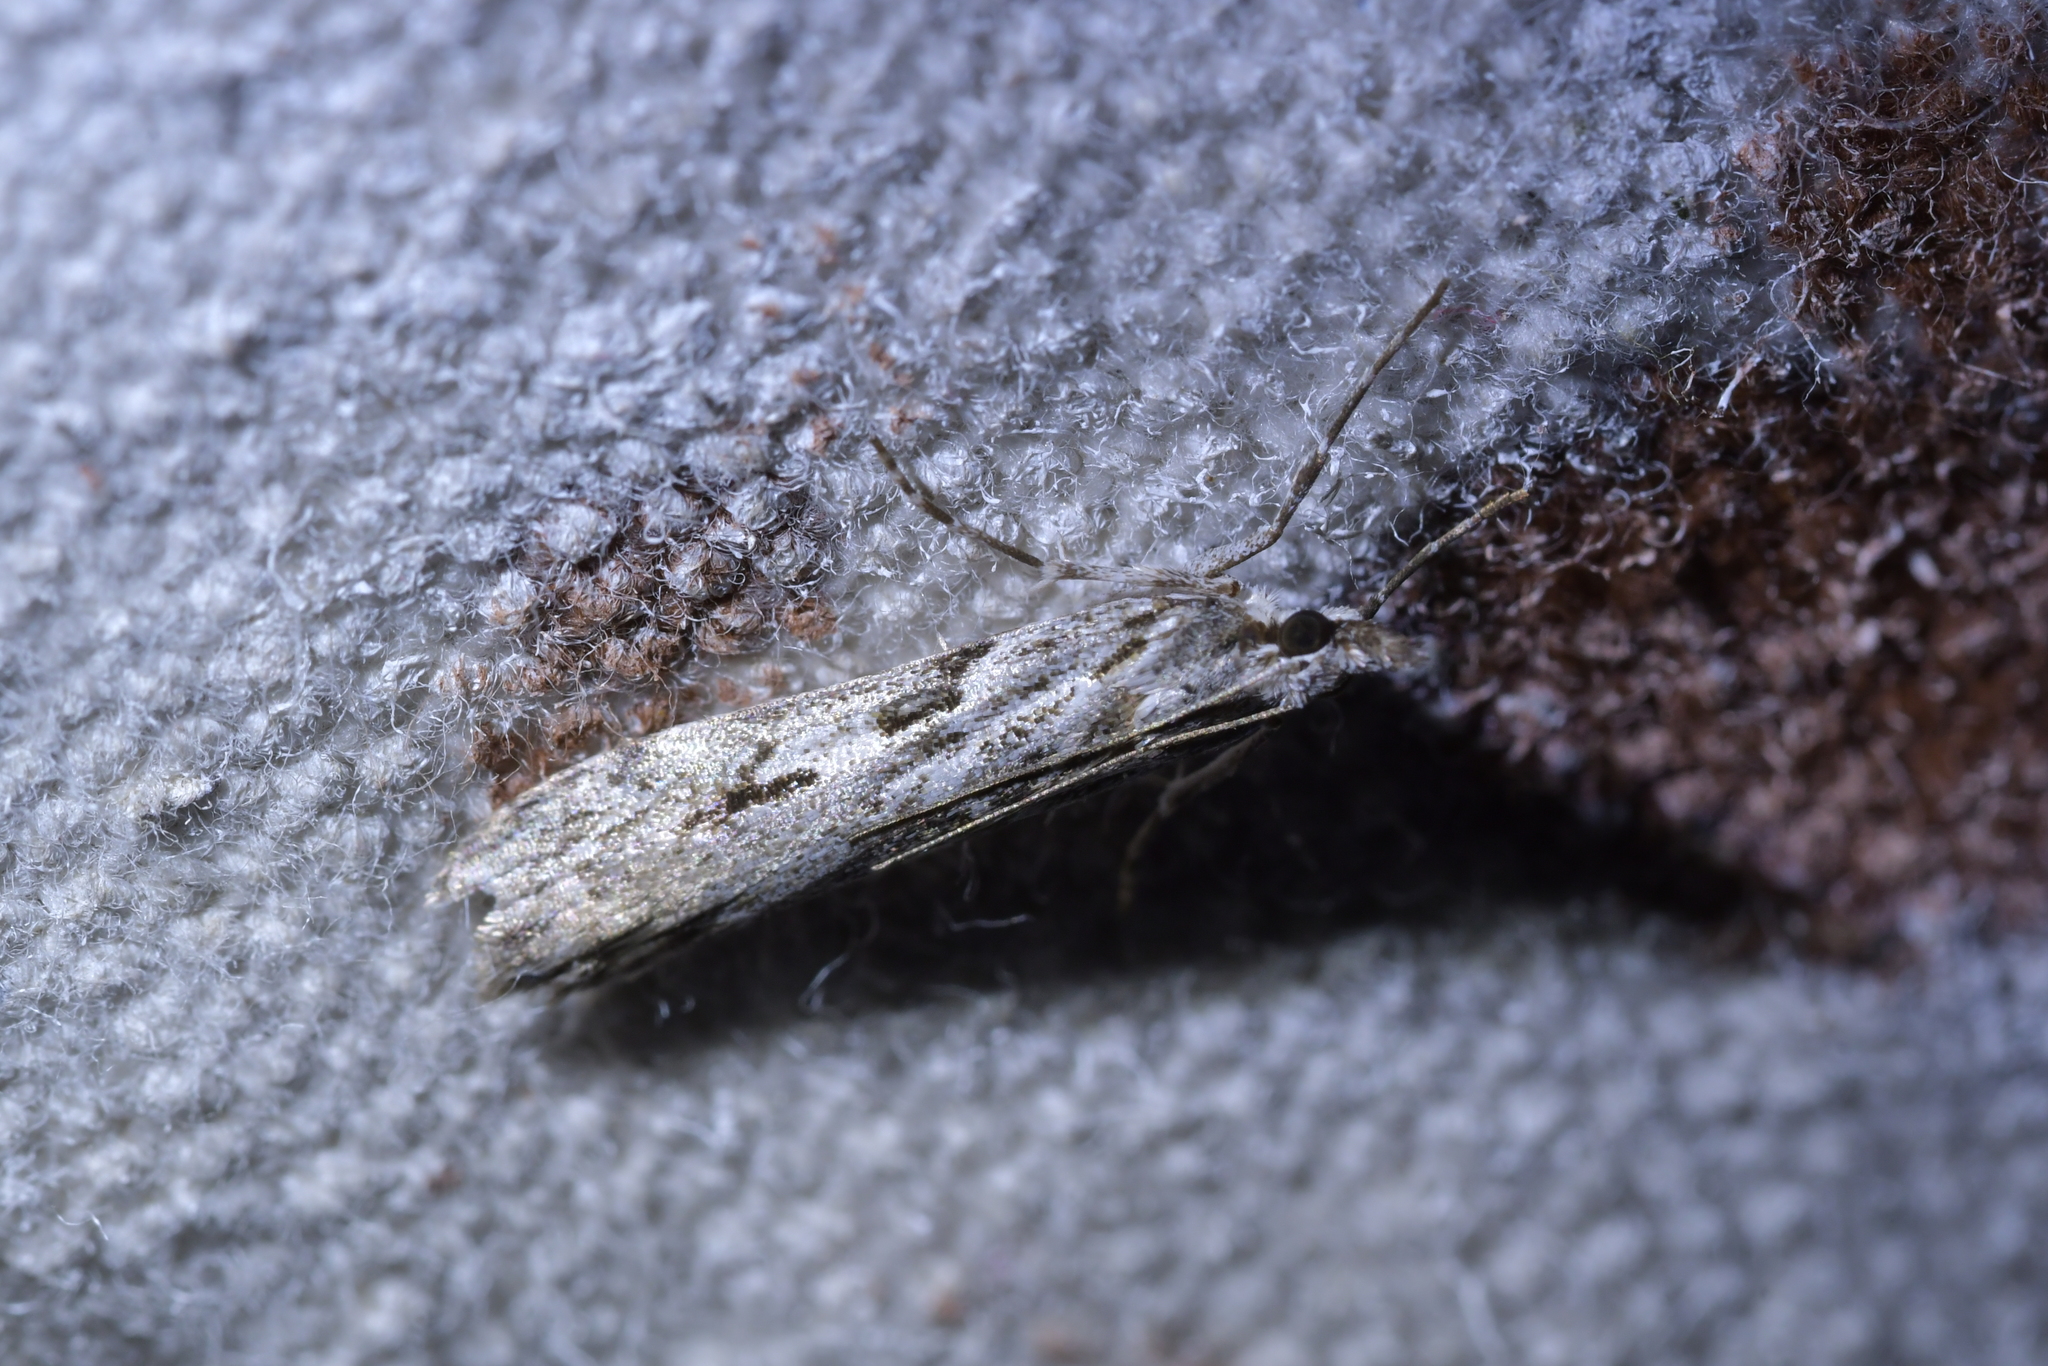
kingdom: Animalia
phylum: Arthropoda
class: Insecta
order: Lepidoptera
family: Crambidae
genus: Scoparia
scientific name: Scoparia halopis
